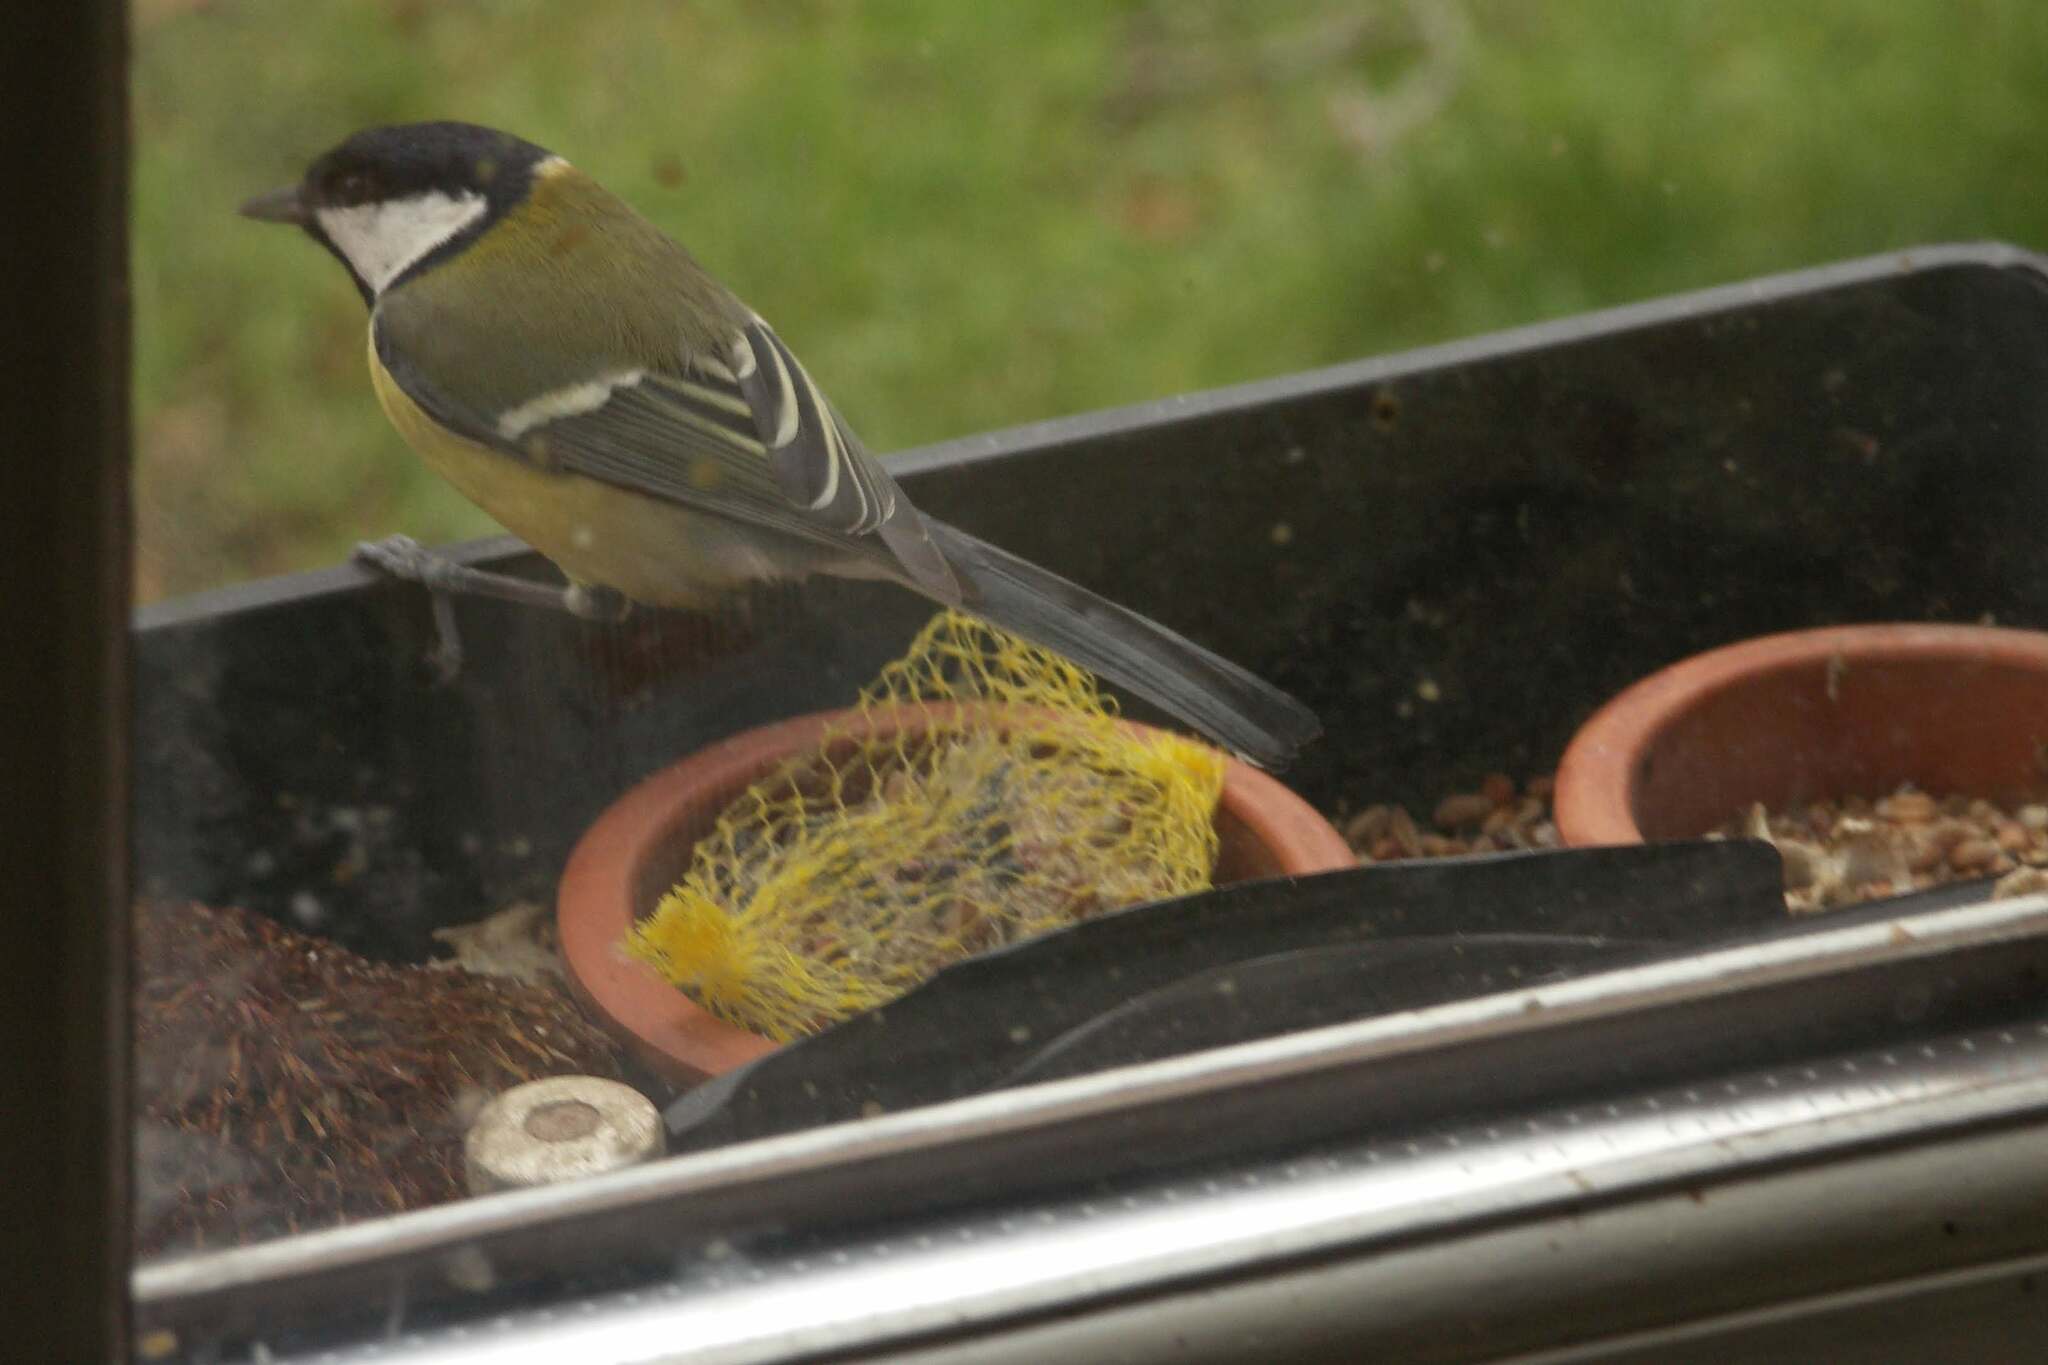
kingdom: Animalia
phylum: Chordata
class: Aves
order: Passeriformes
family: Paridae
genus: Parus
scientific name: Parus major
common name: Great tit
